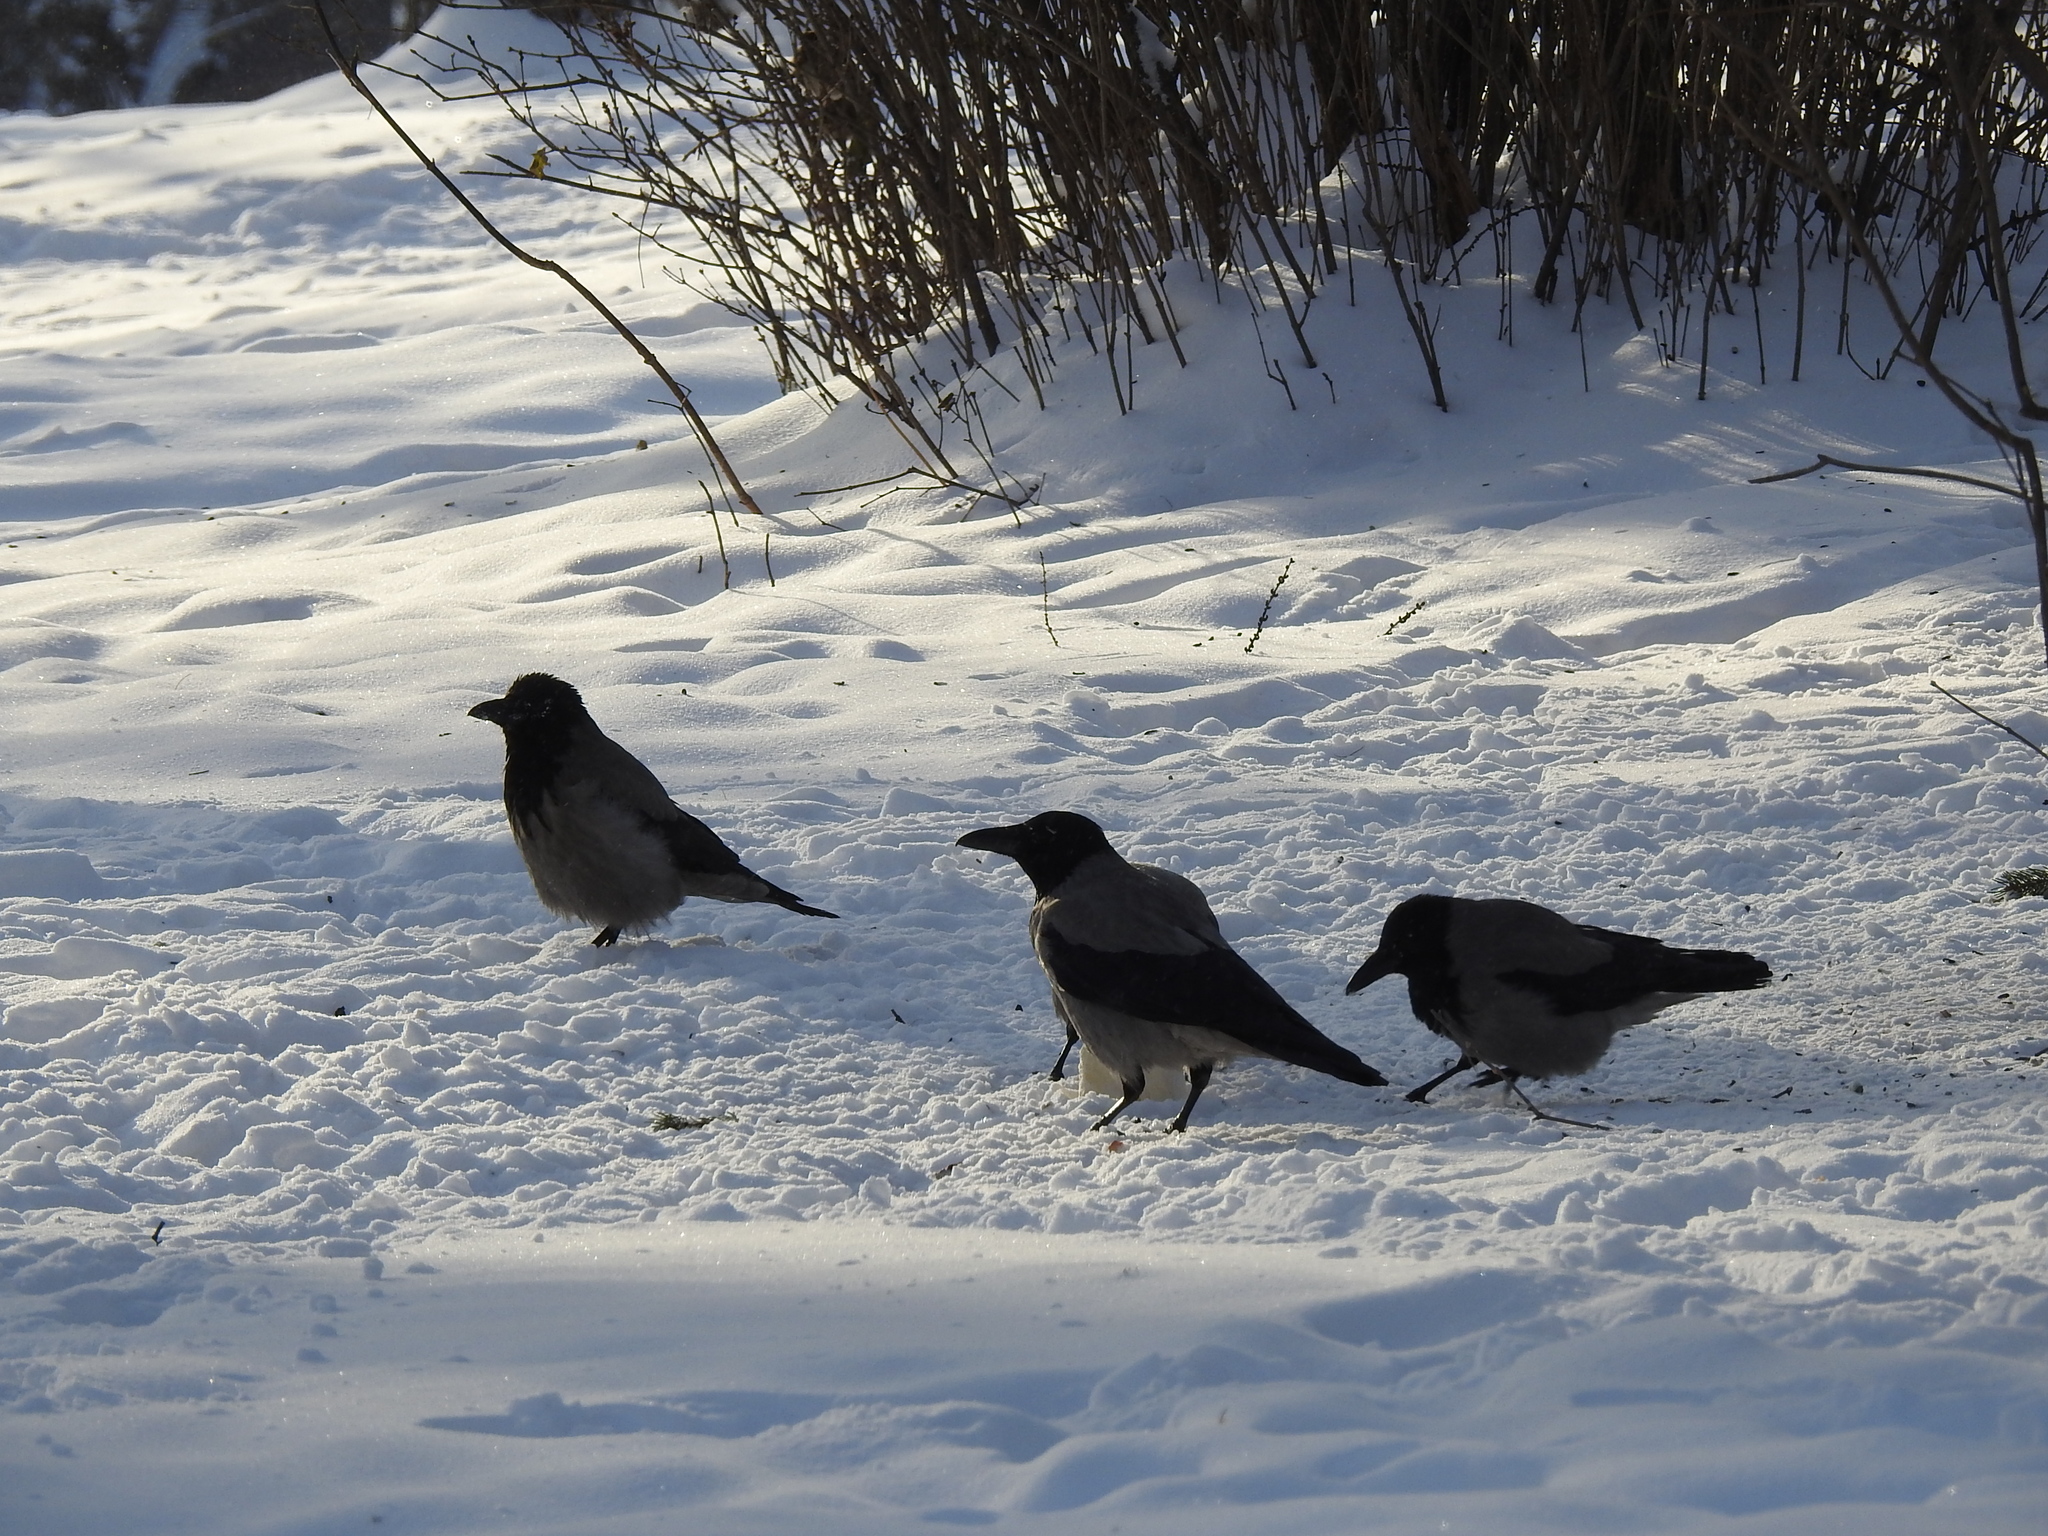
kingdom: Animalia
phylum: Chordata
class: Aves
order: Passeriformes
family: Corvidae
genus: Corvus
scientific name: Corvus cornix
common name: Hooded crow
